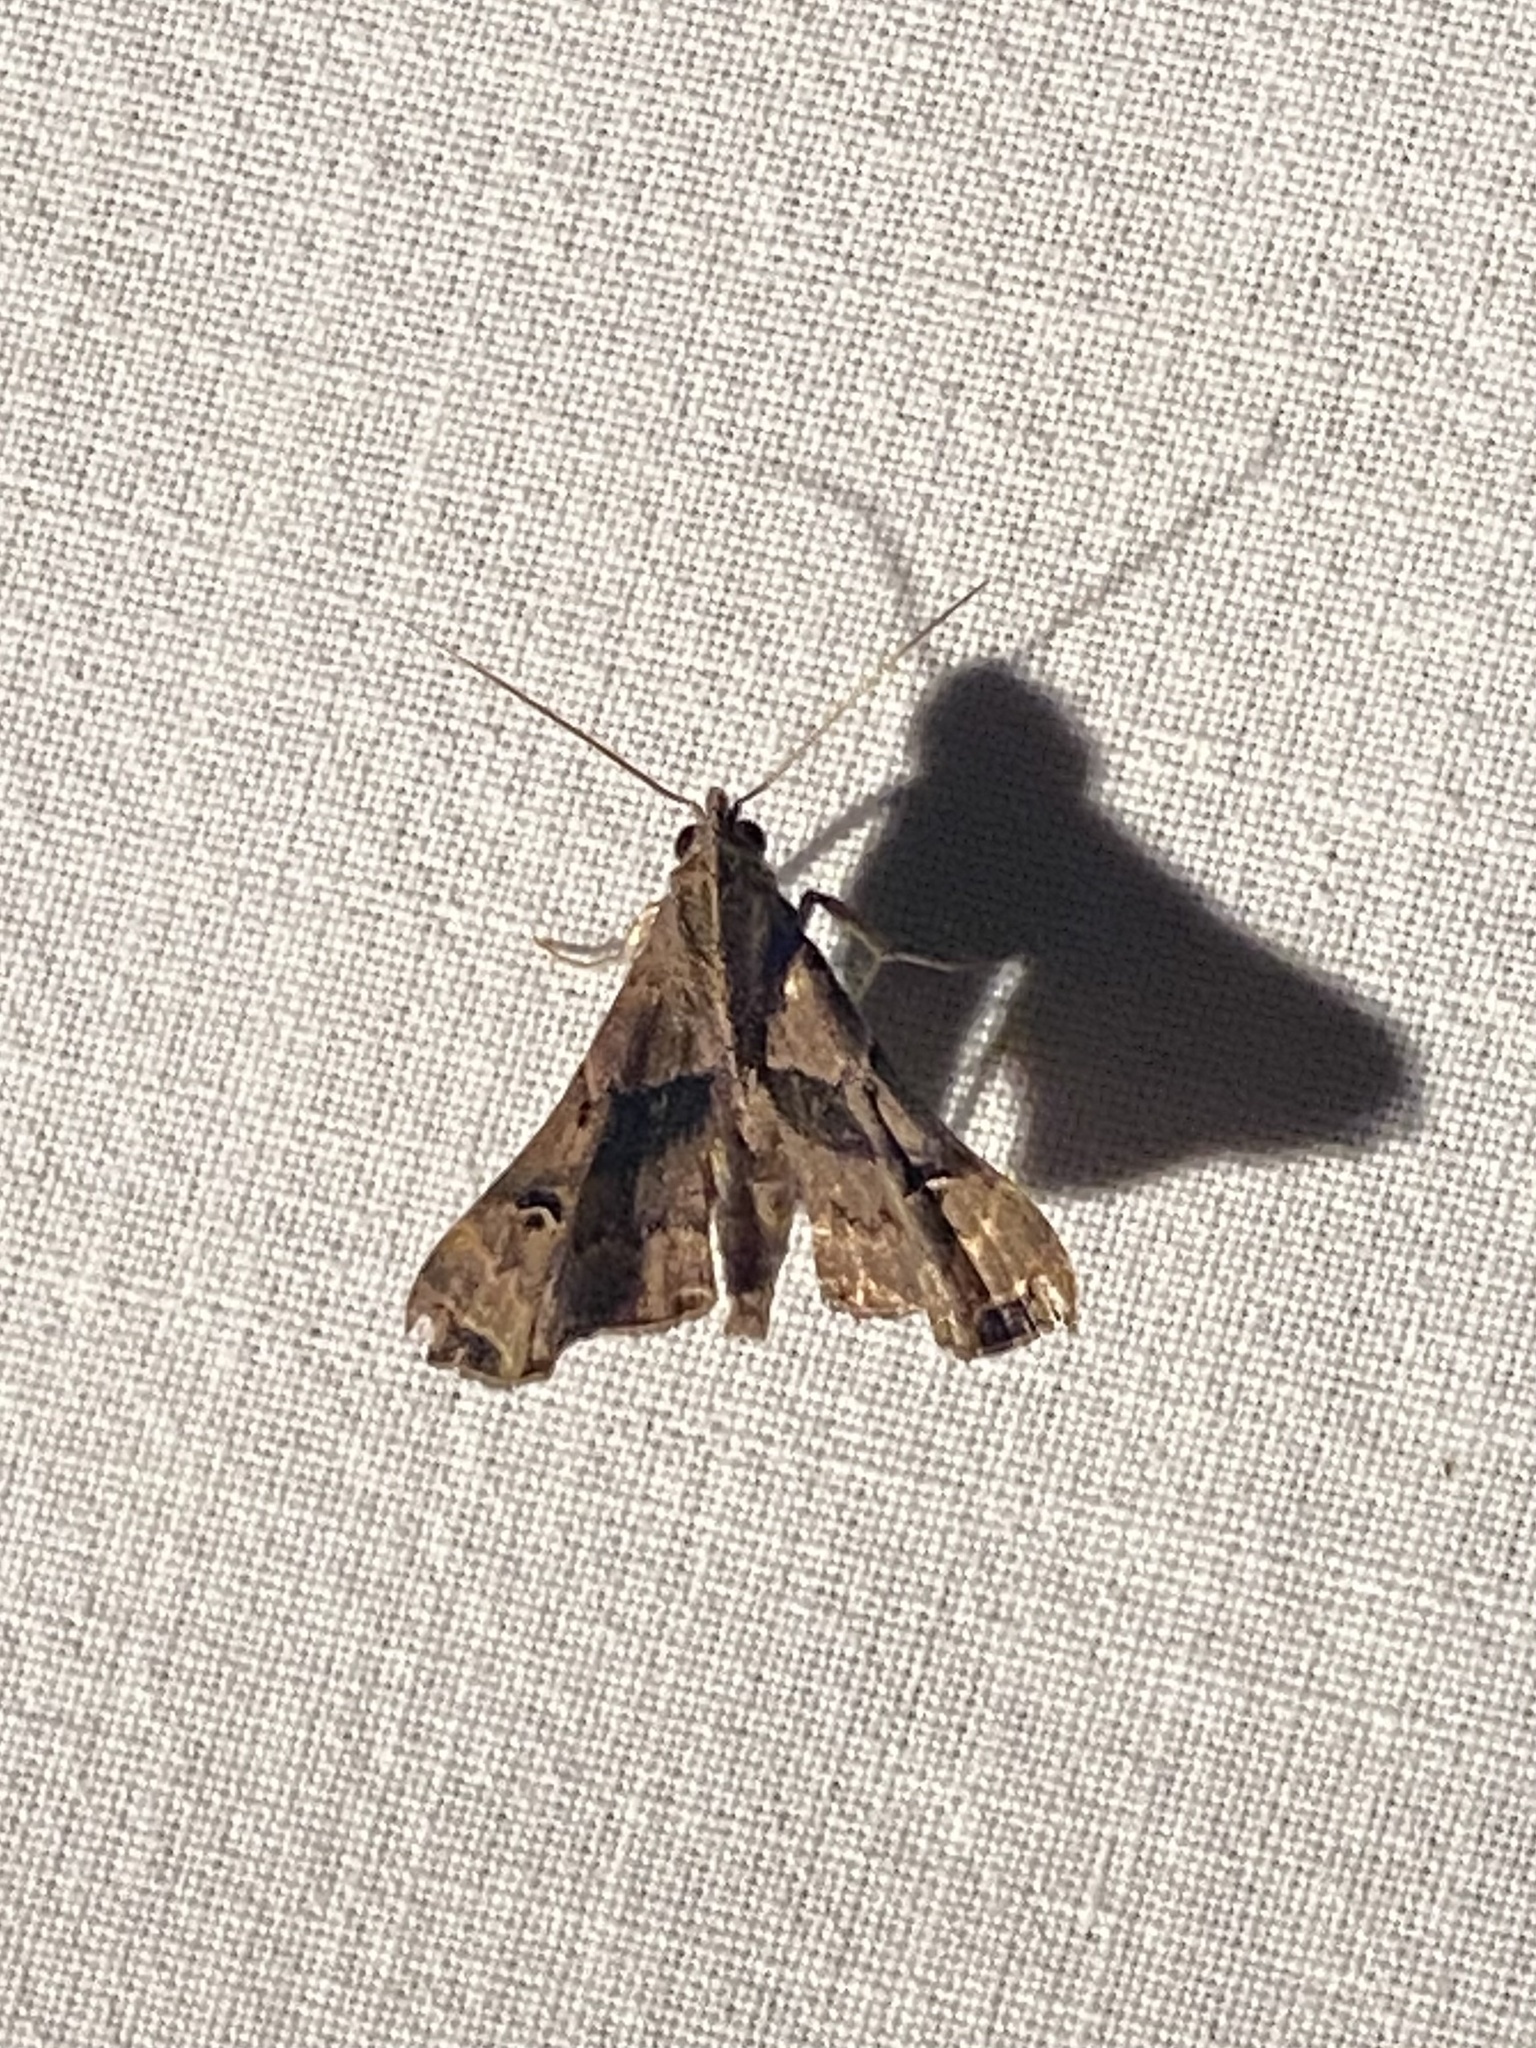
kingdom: Animalia
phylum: Arthropoda
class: Insecta
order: Lepidoptera
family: Erebidae
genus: Palthis
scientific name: Palthis asopialis
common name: Faint-spotted palthis moth
